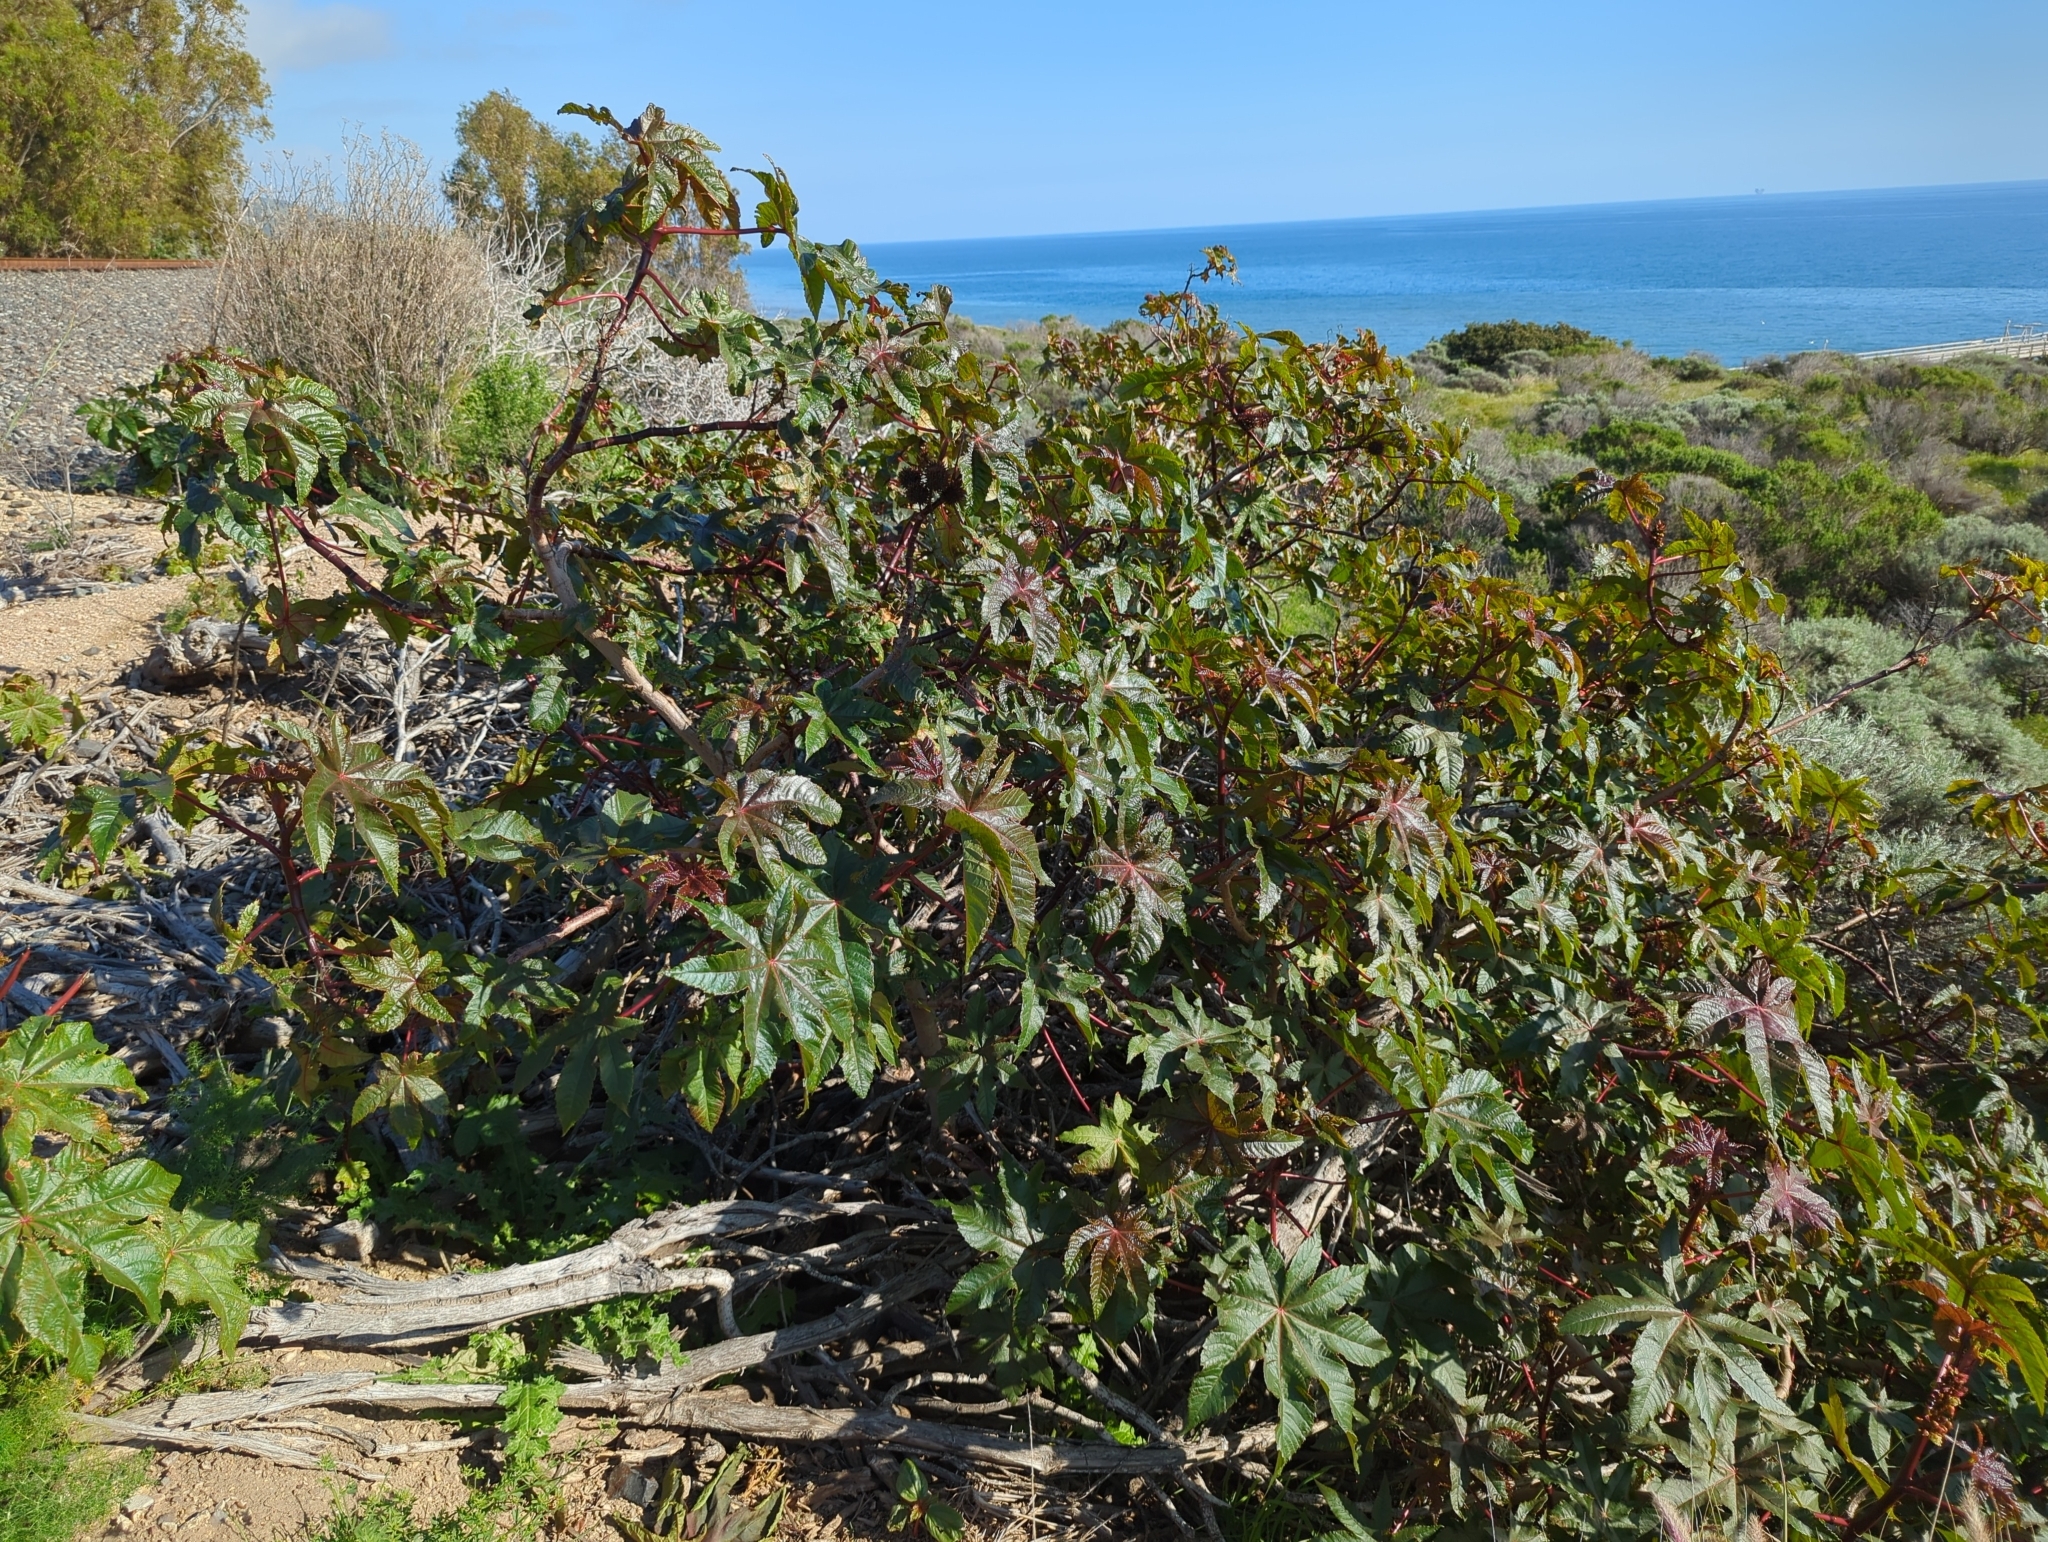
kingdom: Plantae
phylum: Tracheophyta
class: Magnoliopsida
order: Malpighiales
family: Euphorbiaceae
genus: Ricinus
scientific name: Ricinus communis
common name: Castor-oil-plant
